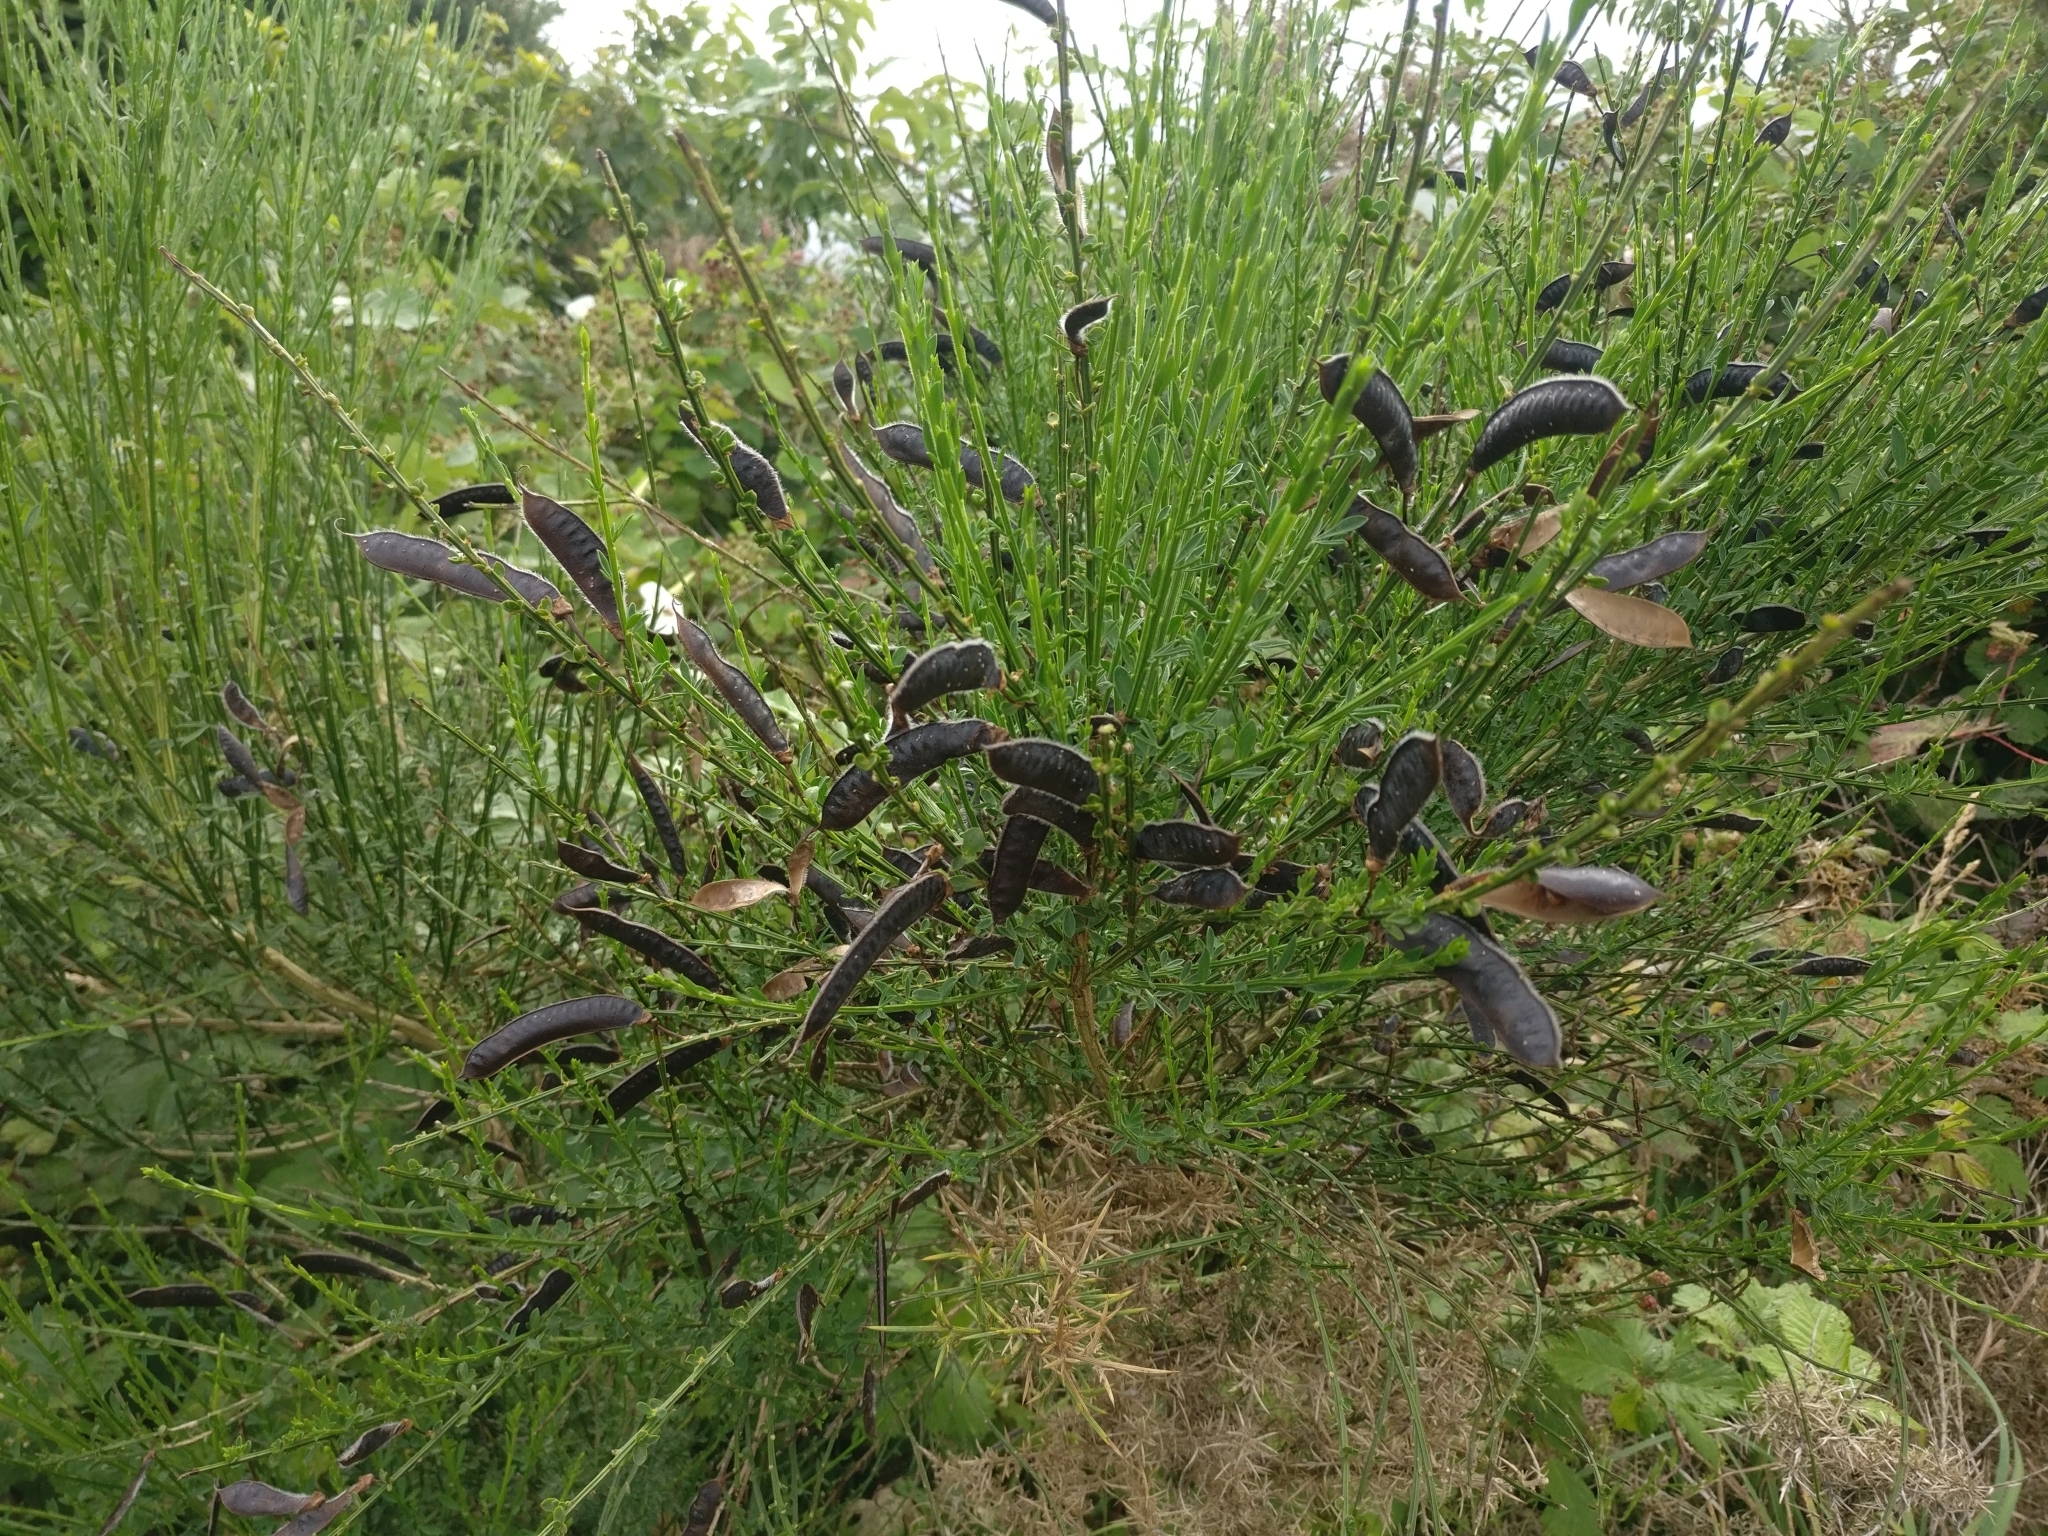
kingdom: Plantae
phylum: Tracheophyta
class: Magnoliopsida
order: Fabales
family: Fabaceae
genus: Cytisus
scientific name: Cytisus scoparius
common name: Scotch broom
